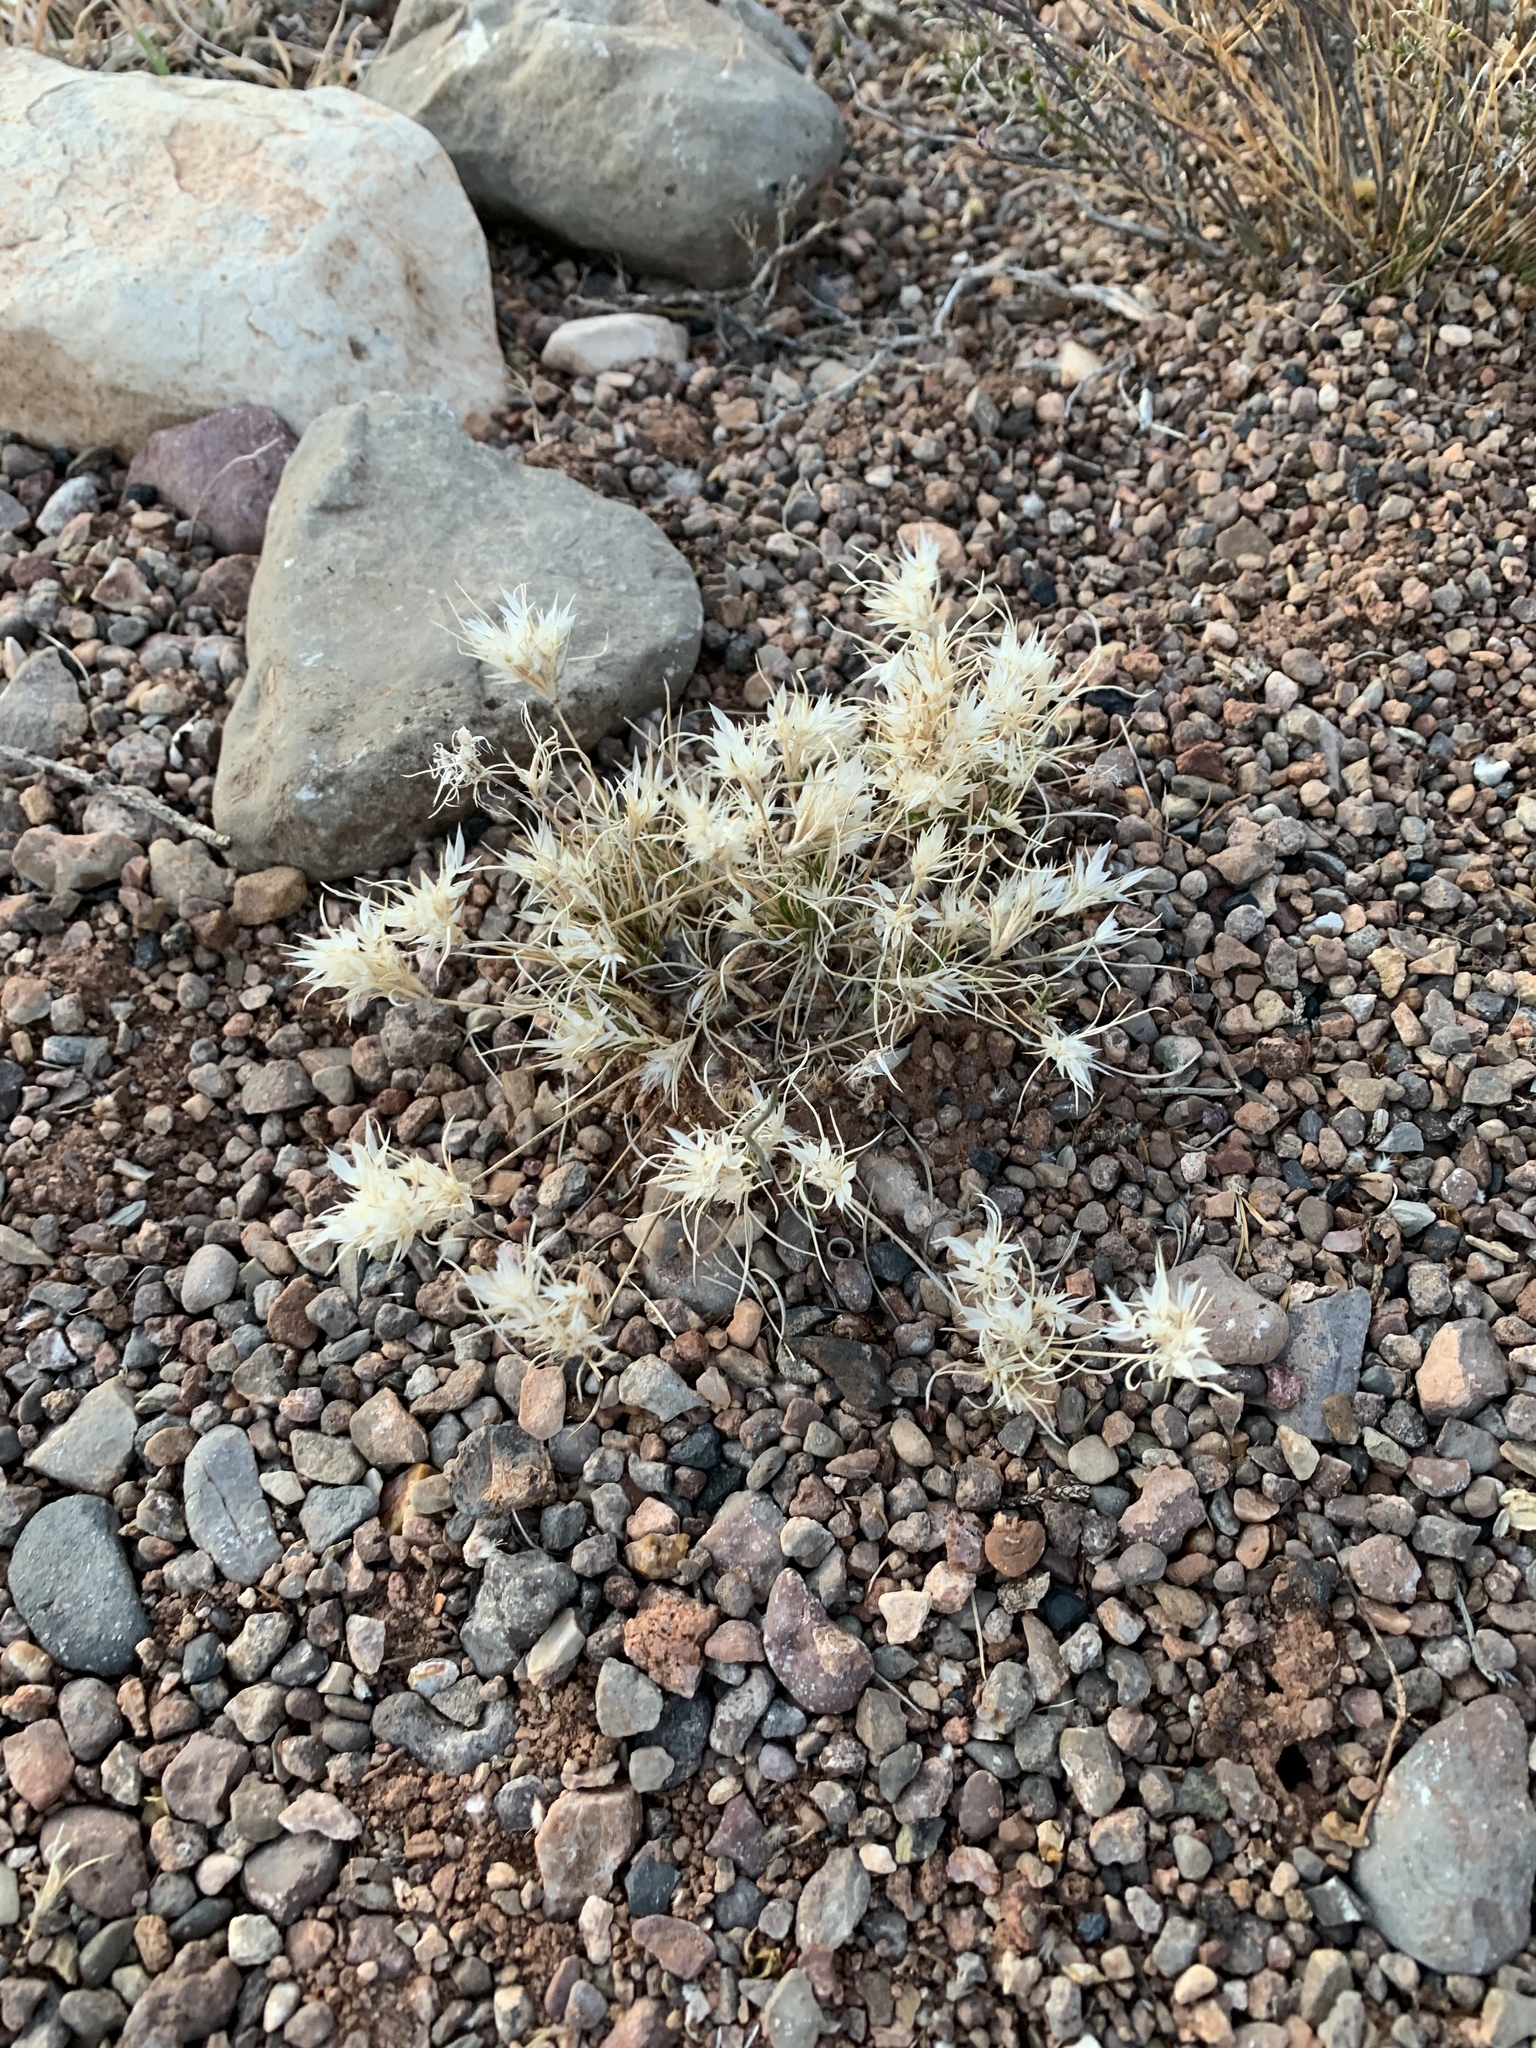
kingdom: Plantae
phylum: Tracheophyta
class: Liliopsida
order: Poales
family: Poaceae
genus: Dasyochloa
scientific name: Dasyochloa pulchella
